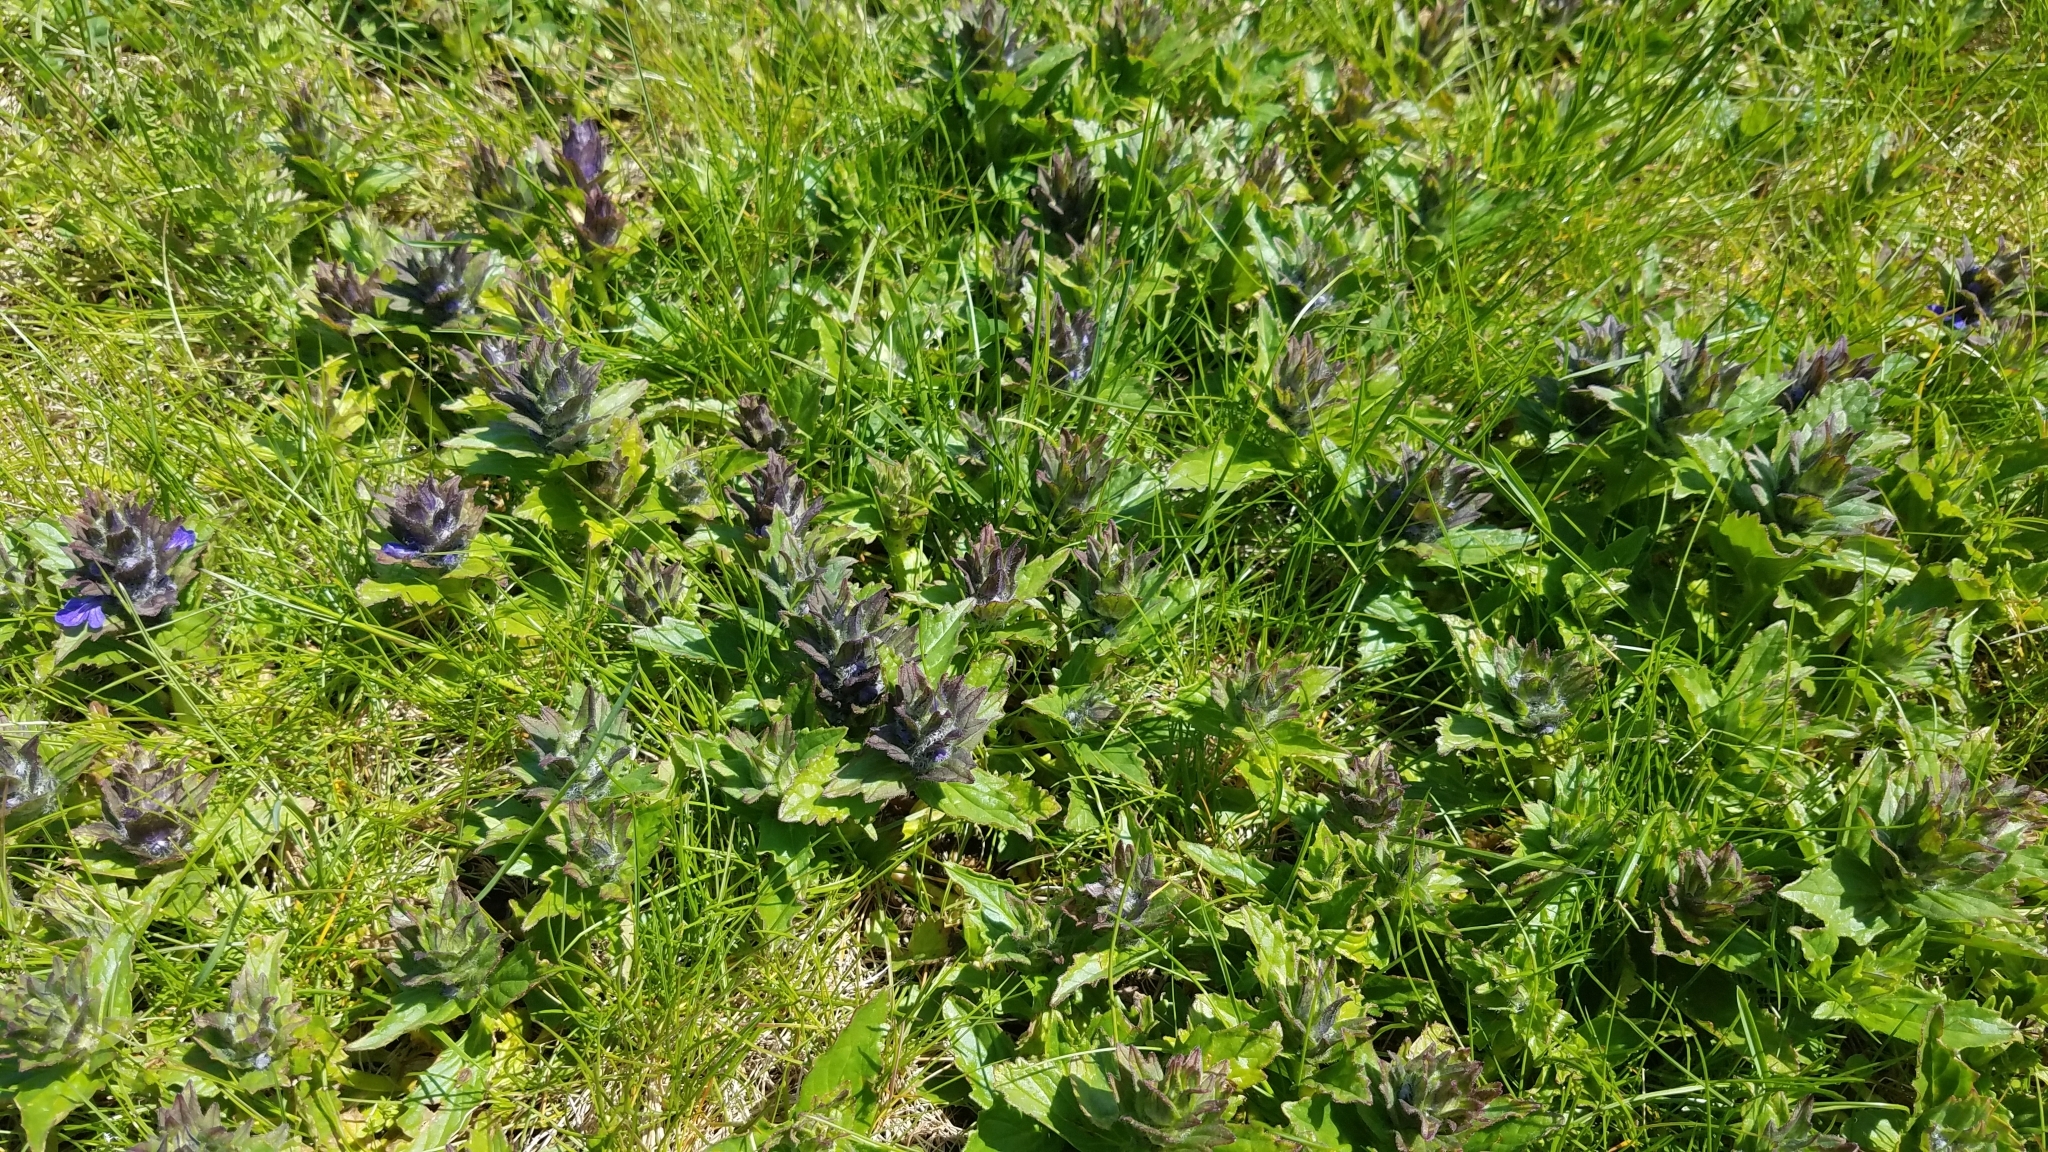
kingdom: Plantae
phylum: Tracheophyta
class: Magnoliopsida
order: Lamiales
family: Lamiaceae
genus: Ajuga
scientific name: Ajuga genevensis
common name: Blue bugle
